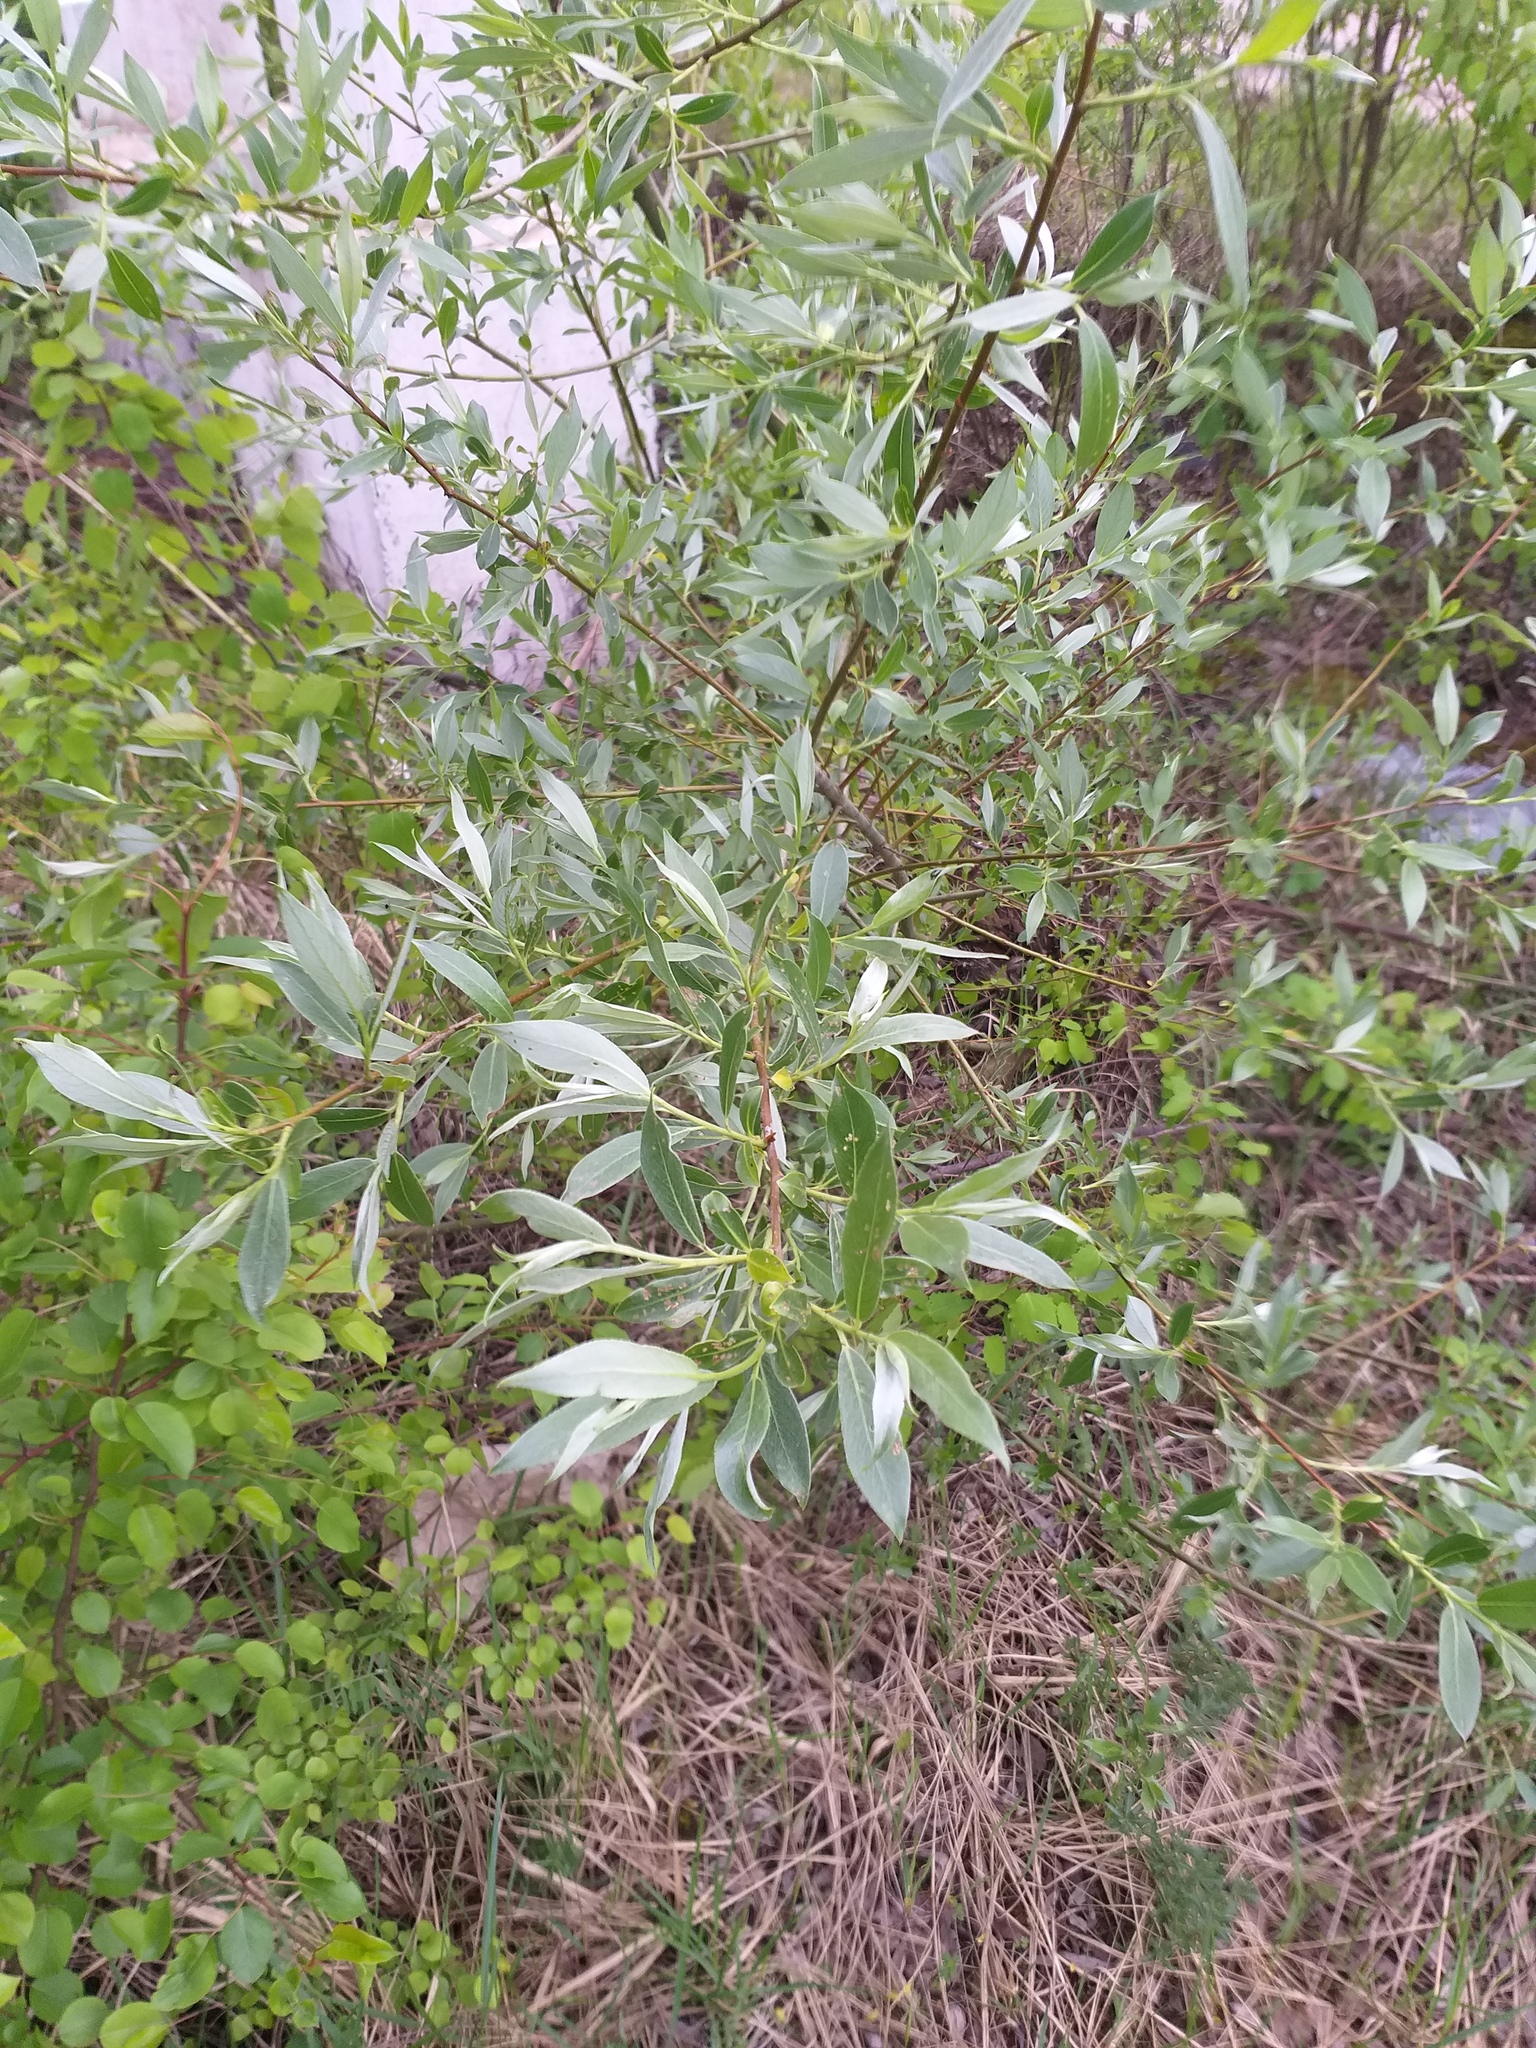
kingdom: Plantae
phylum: Tracheophyta
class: Magnoliopsida
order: Malpighiales
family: Salicaceae
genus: Salix
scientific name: Salix alba
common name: White willow
